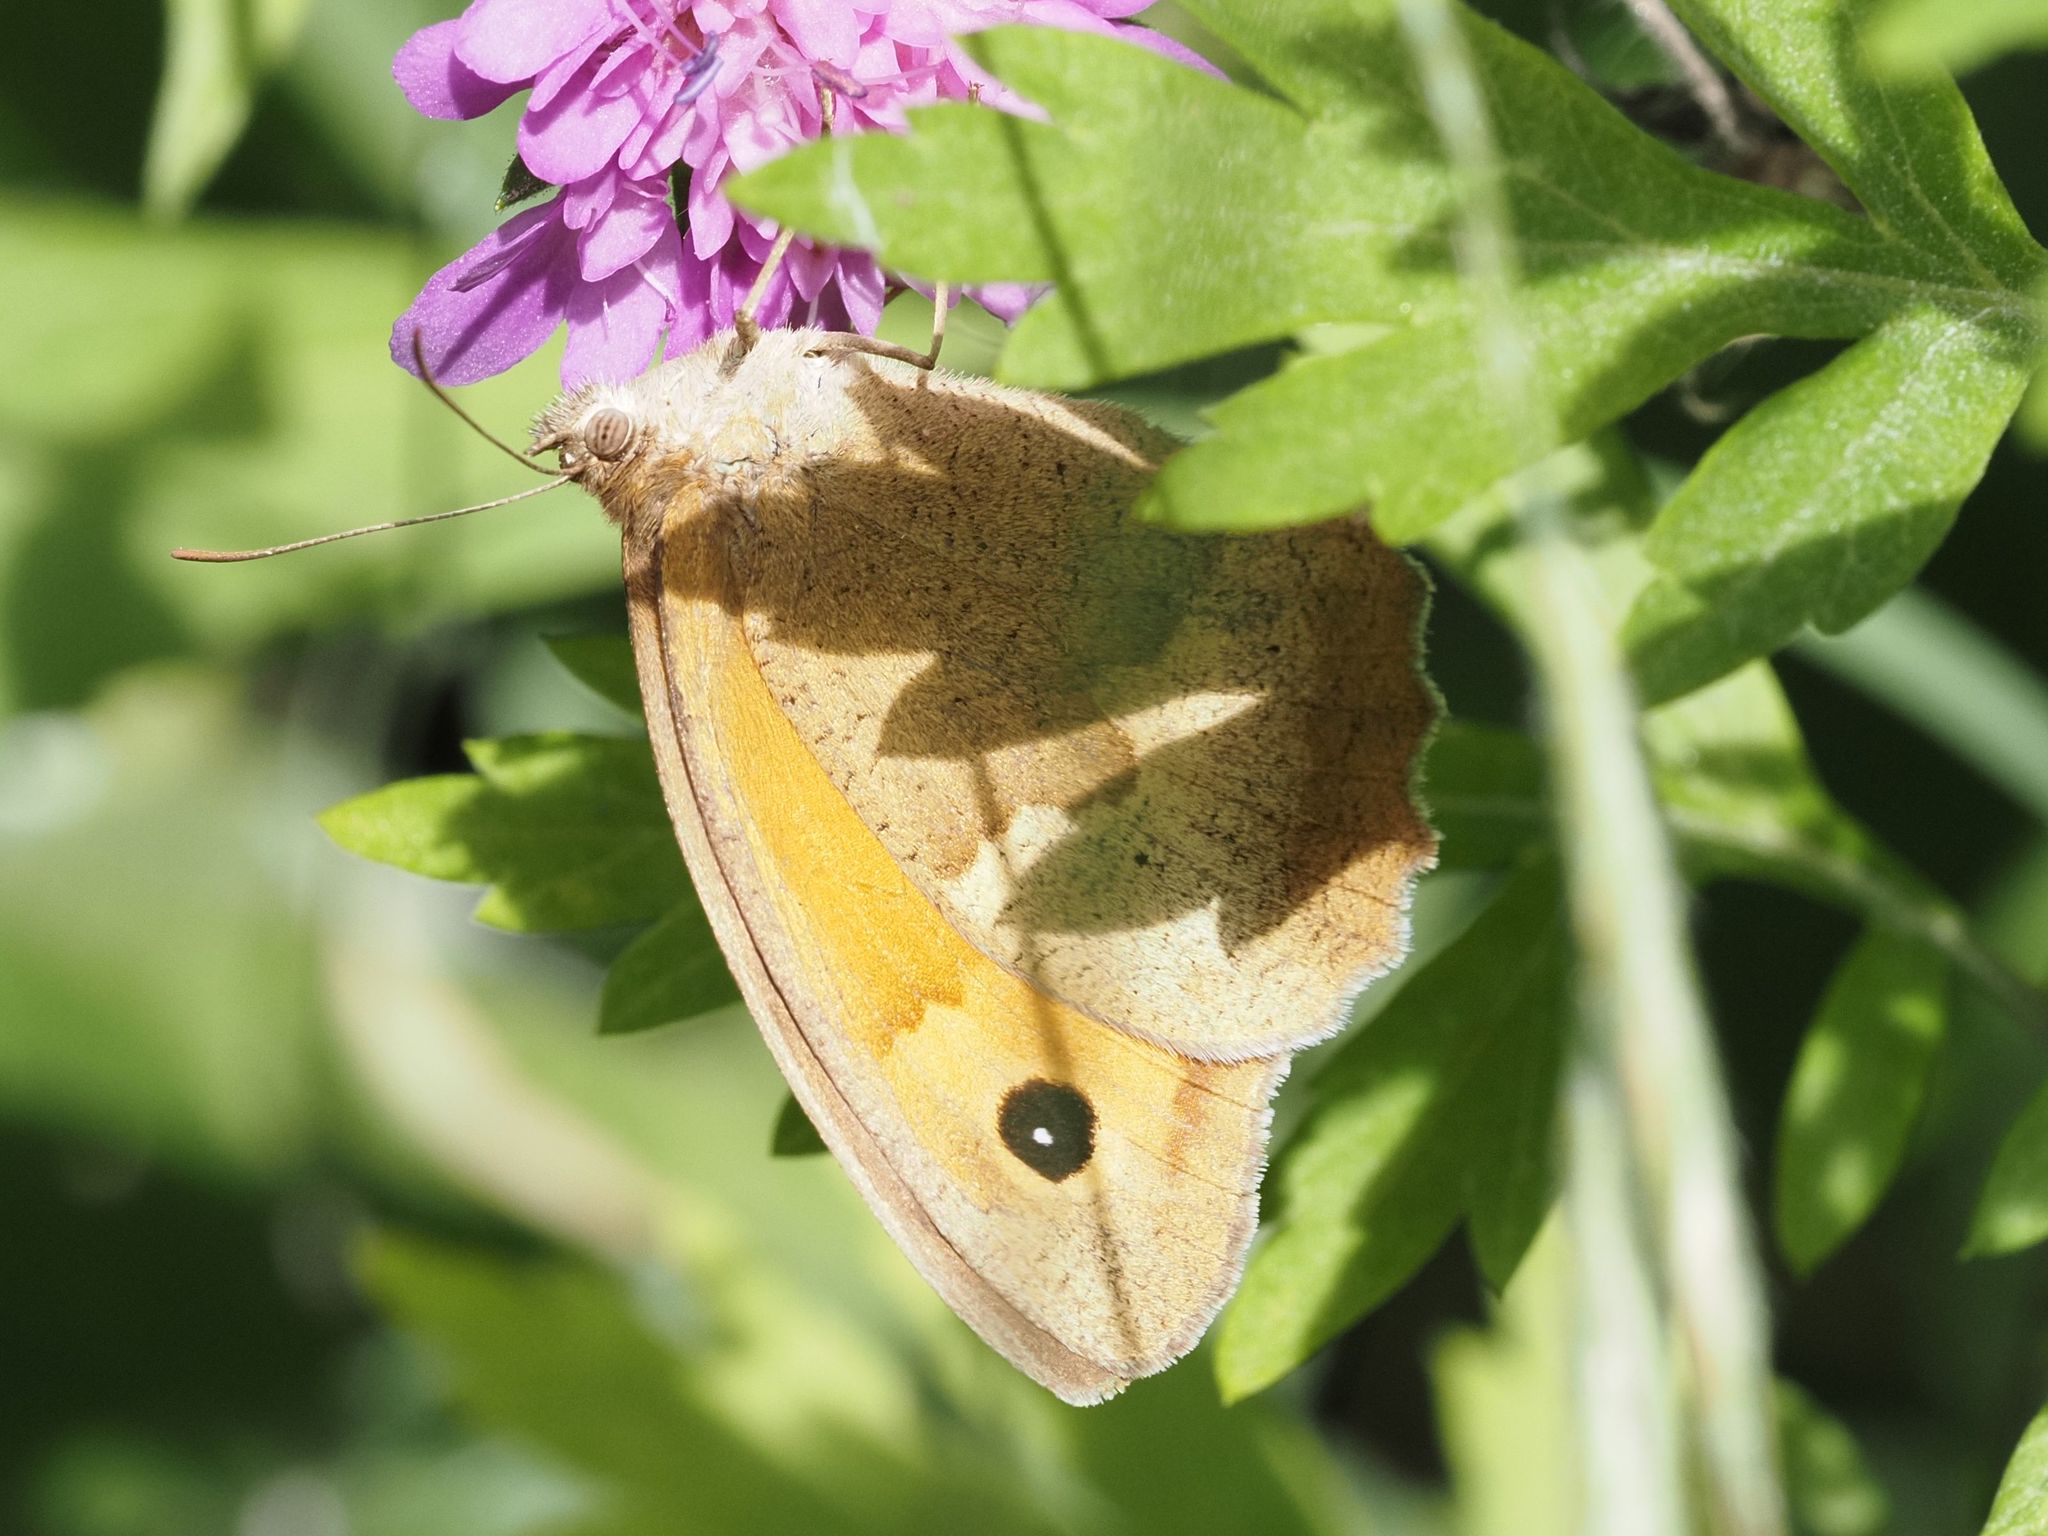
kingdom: Animalia
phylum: Arthropoda
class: Insecta
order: Lepidoptera
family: Nymphalidae
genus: Maniola
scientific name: Maniola jurtina
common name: Meadow brown
